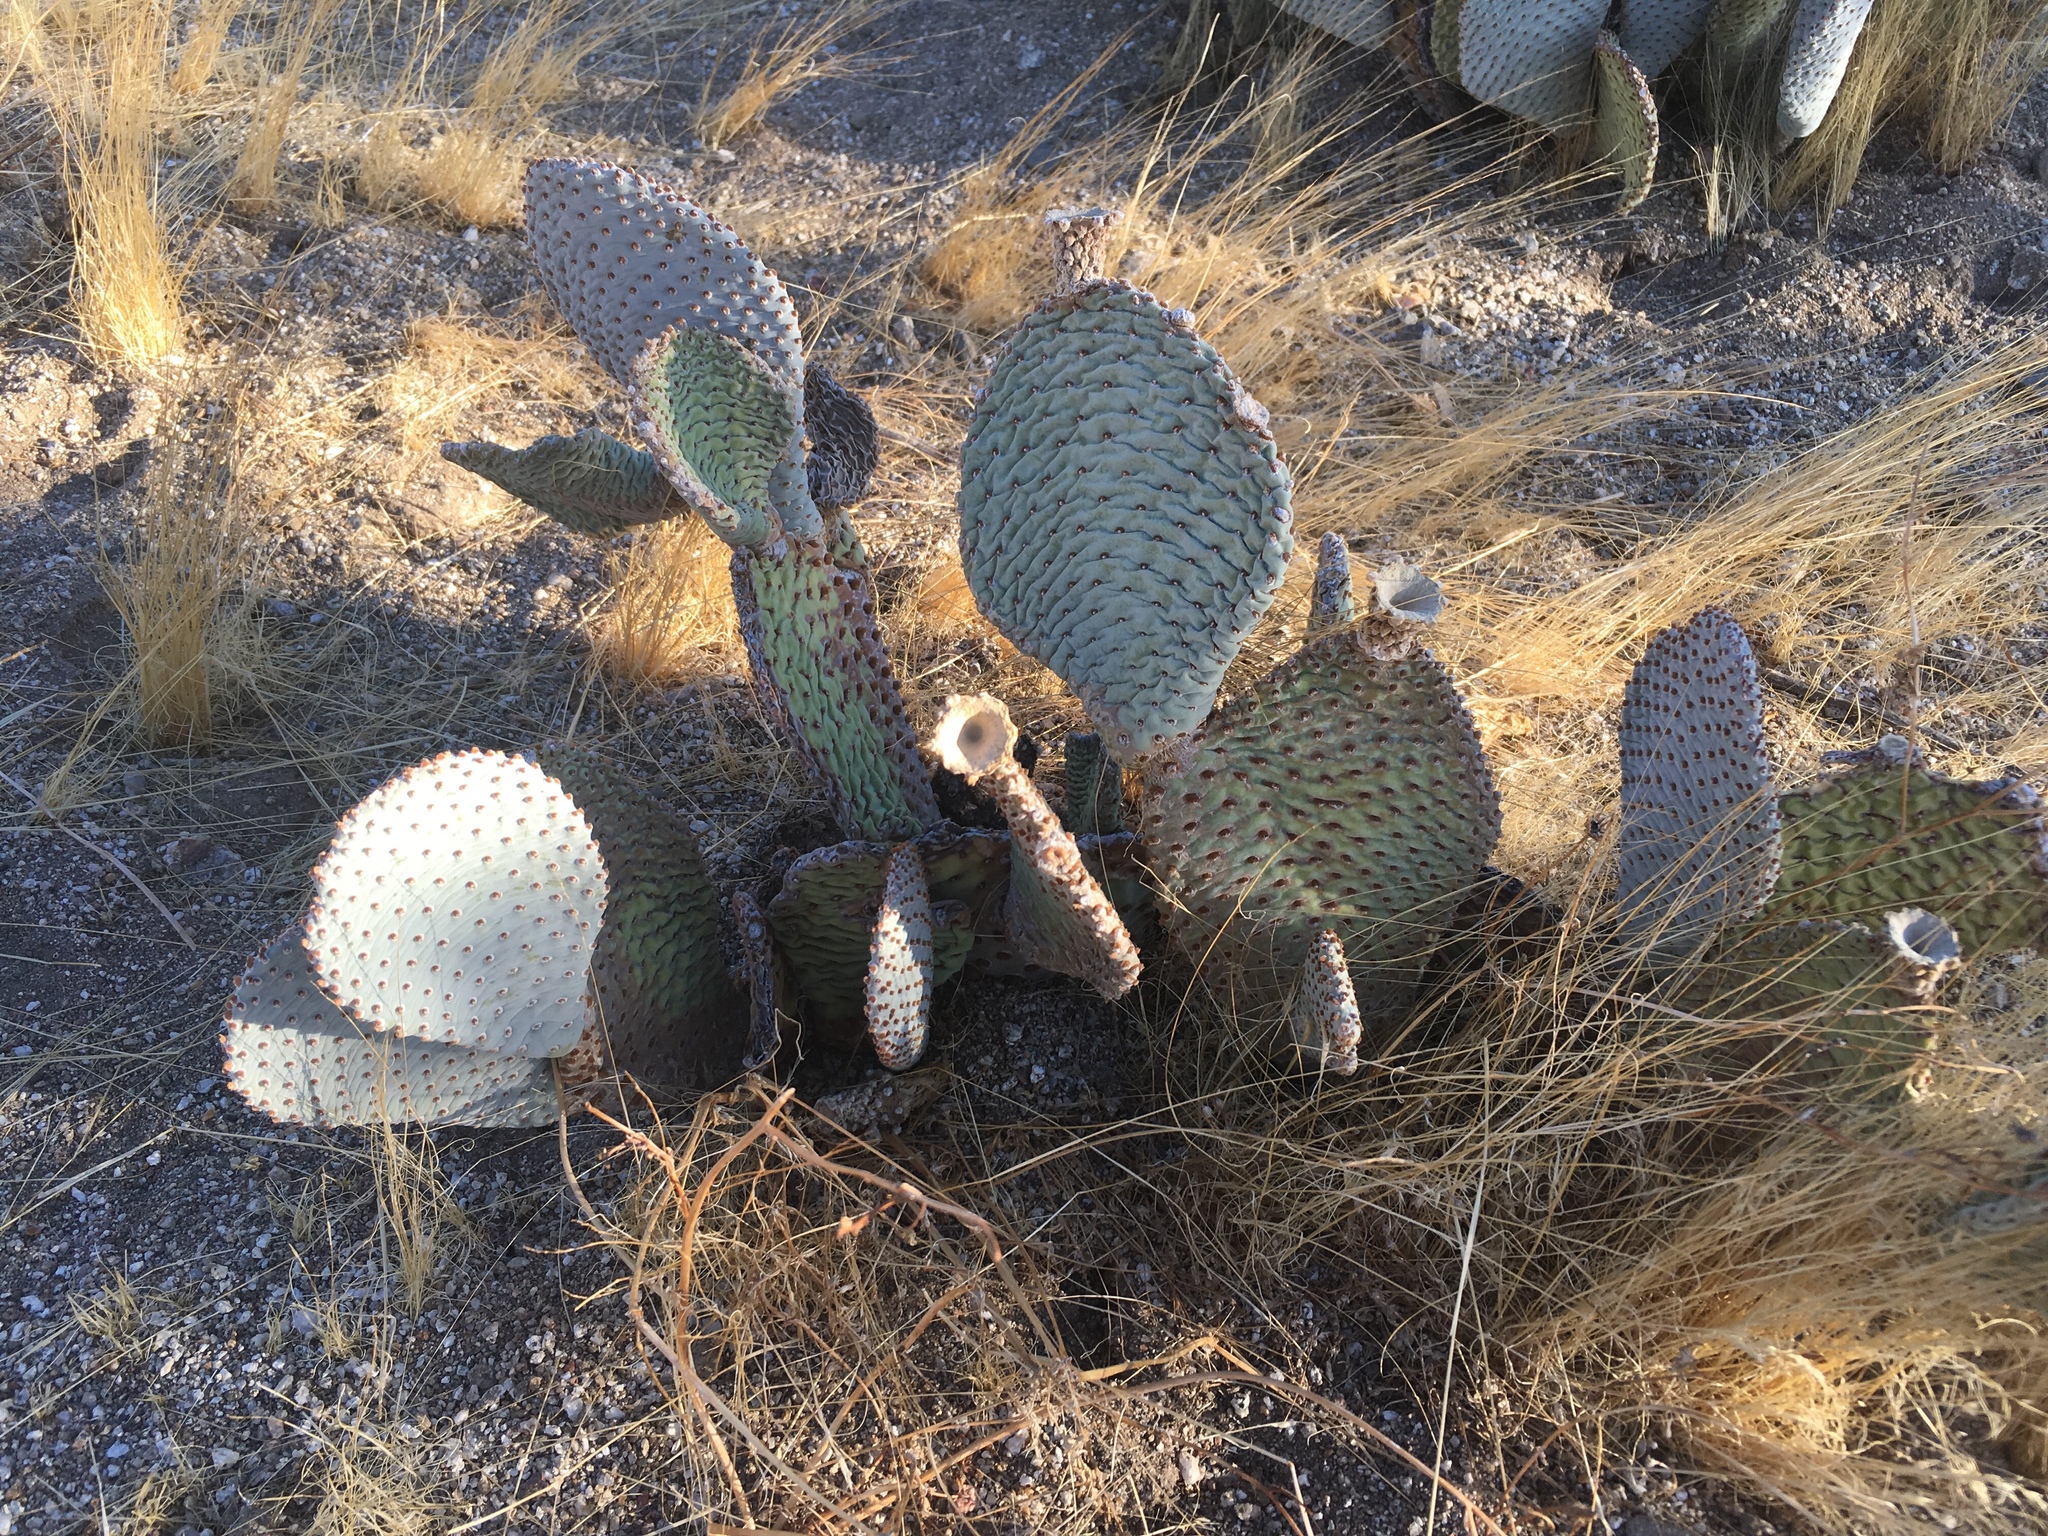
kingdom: Plantae
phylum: Tracheophyta
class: Magnoliopsida
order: Caryophyllales
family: Cactaceae
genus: Opuntia
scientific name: Opuntia basilaris
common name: Beavertail prickly-pear
